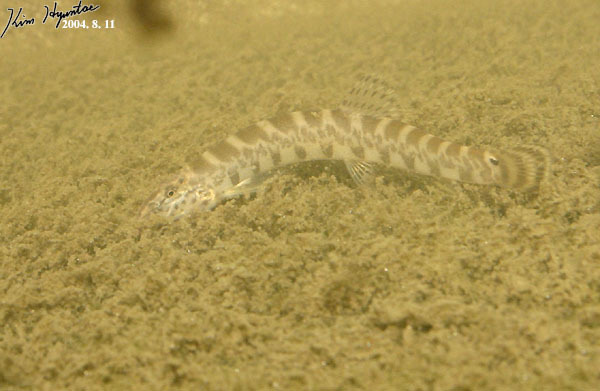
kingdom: Animalia
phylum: Chordata
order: Cypriniformes
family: Cobitidae
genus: Iksookimia
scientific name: Iksookimia koreensis
